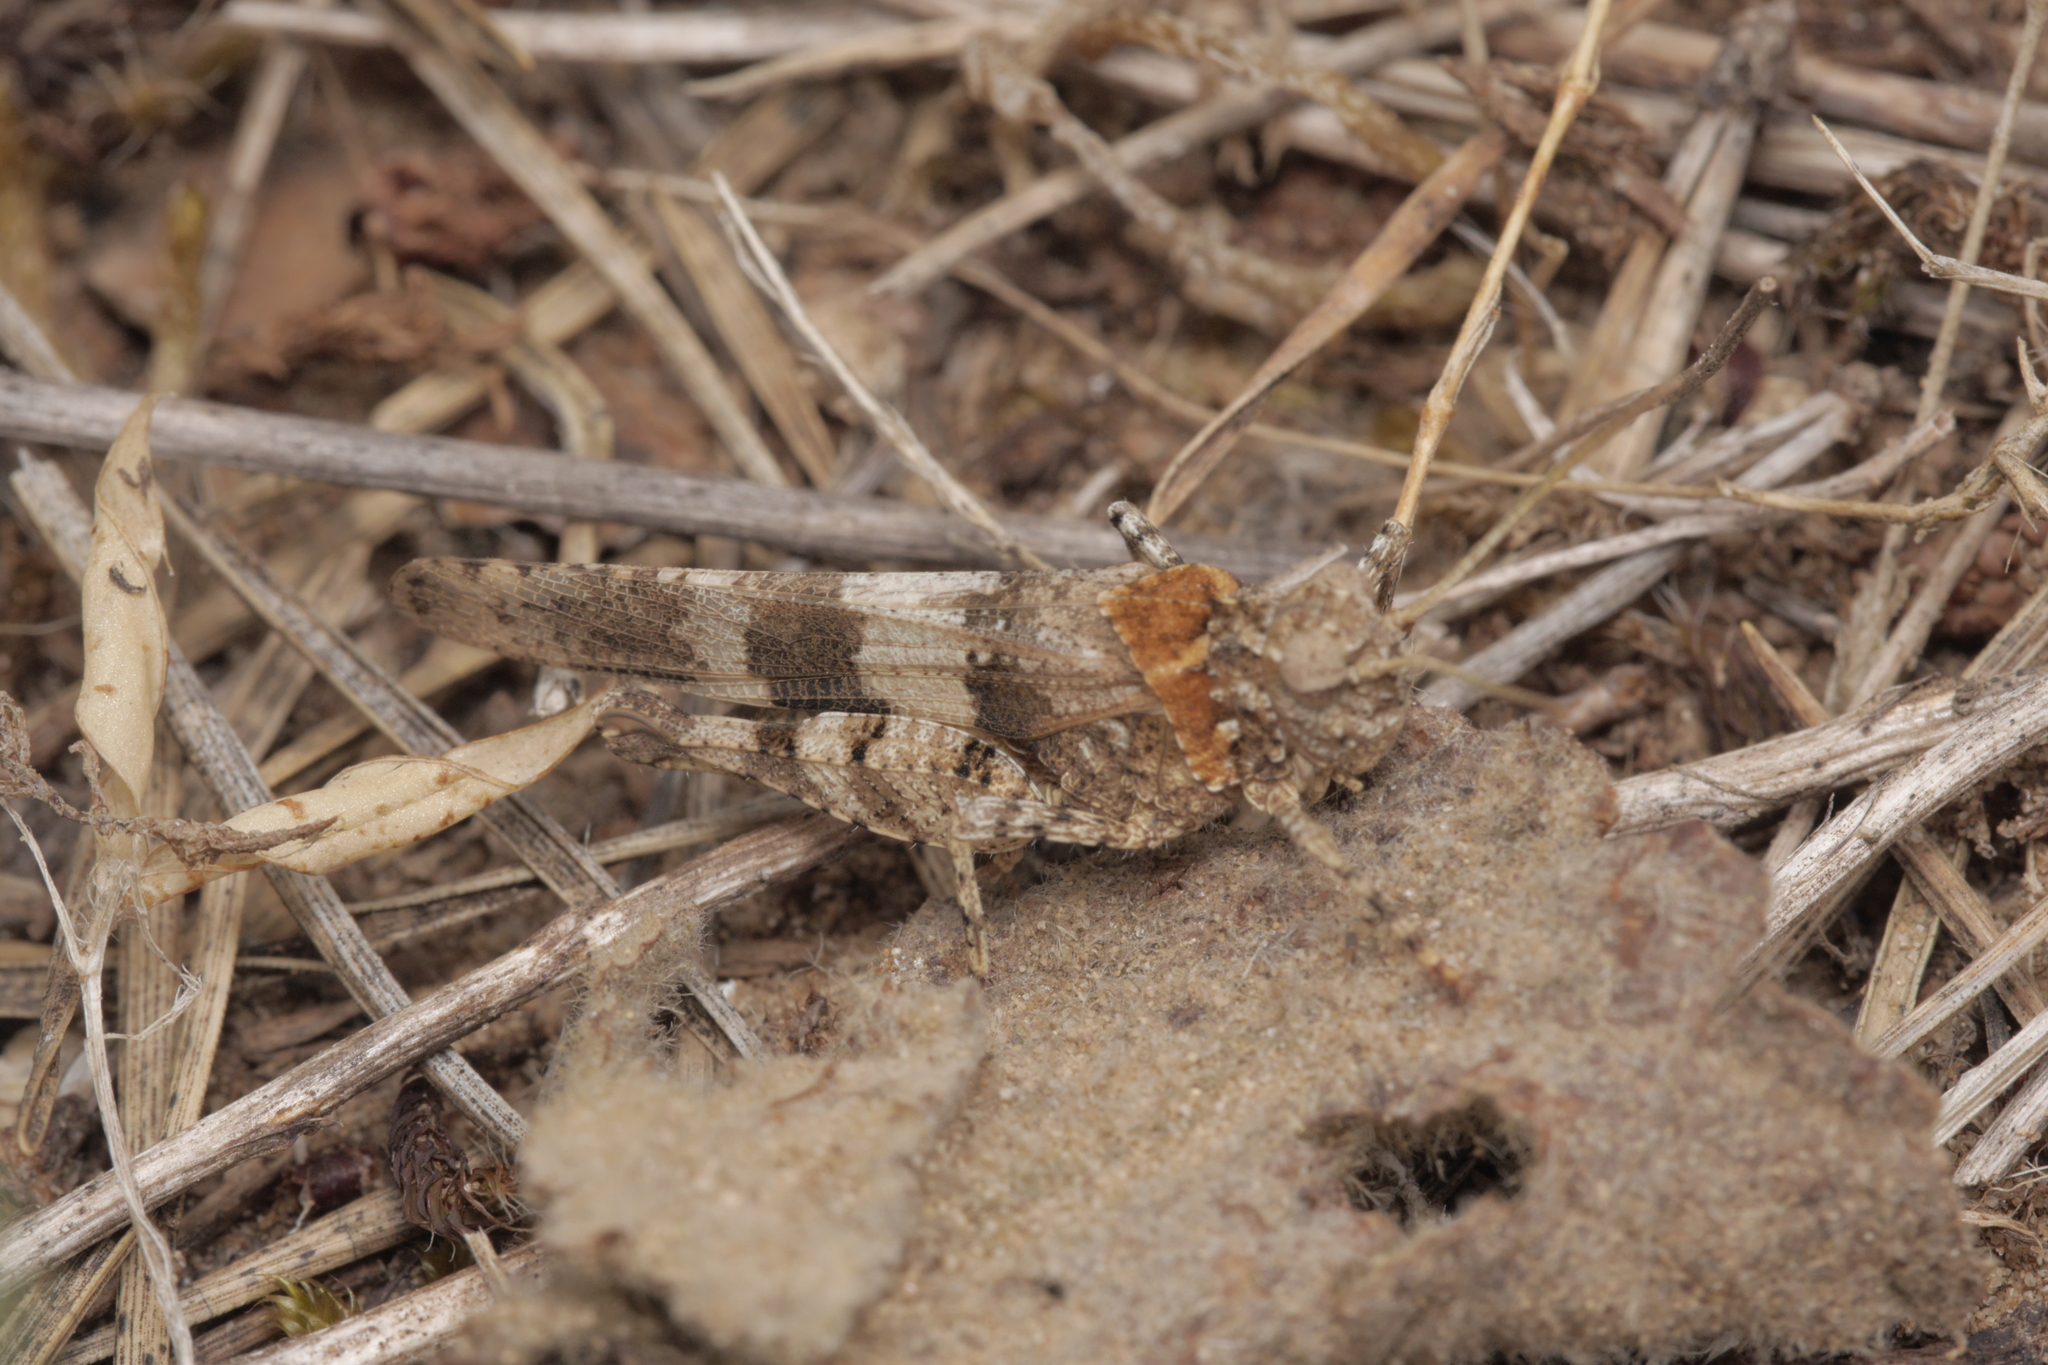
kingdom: Animalia
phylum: Arthropoda
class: Insecta
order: Orthoptera
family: Acrididae
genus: Oedipoda
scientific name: Oedipoda caerulescens
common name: Blue-winged grasshopper
